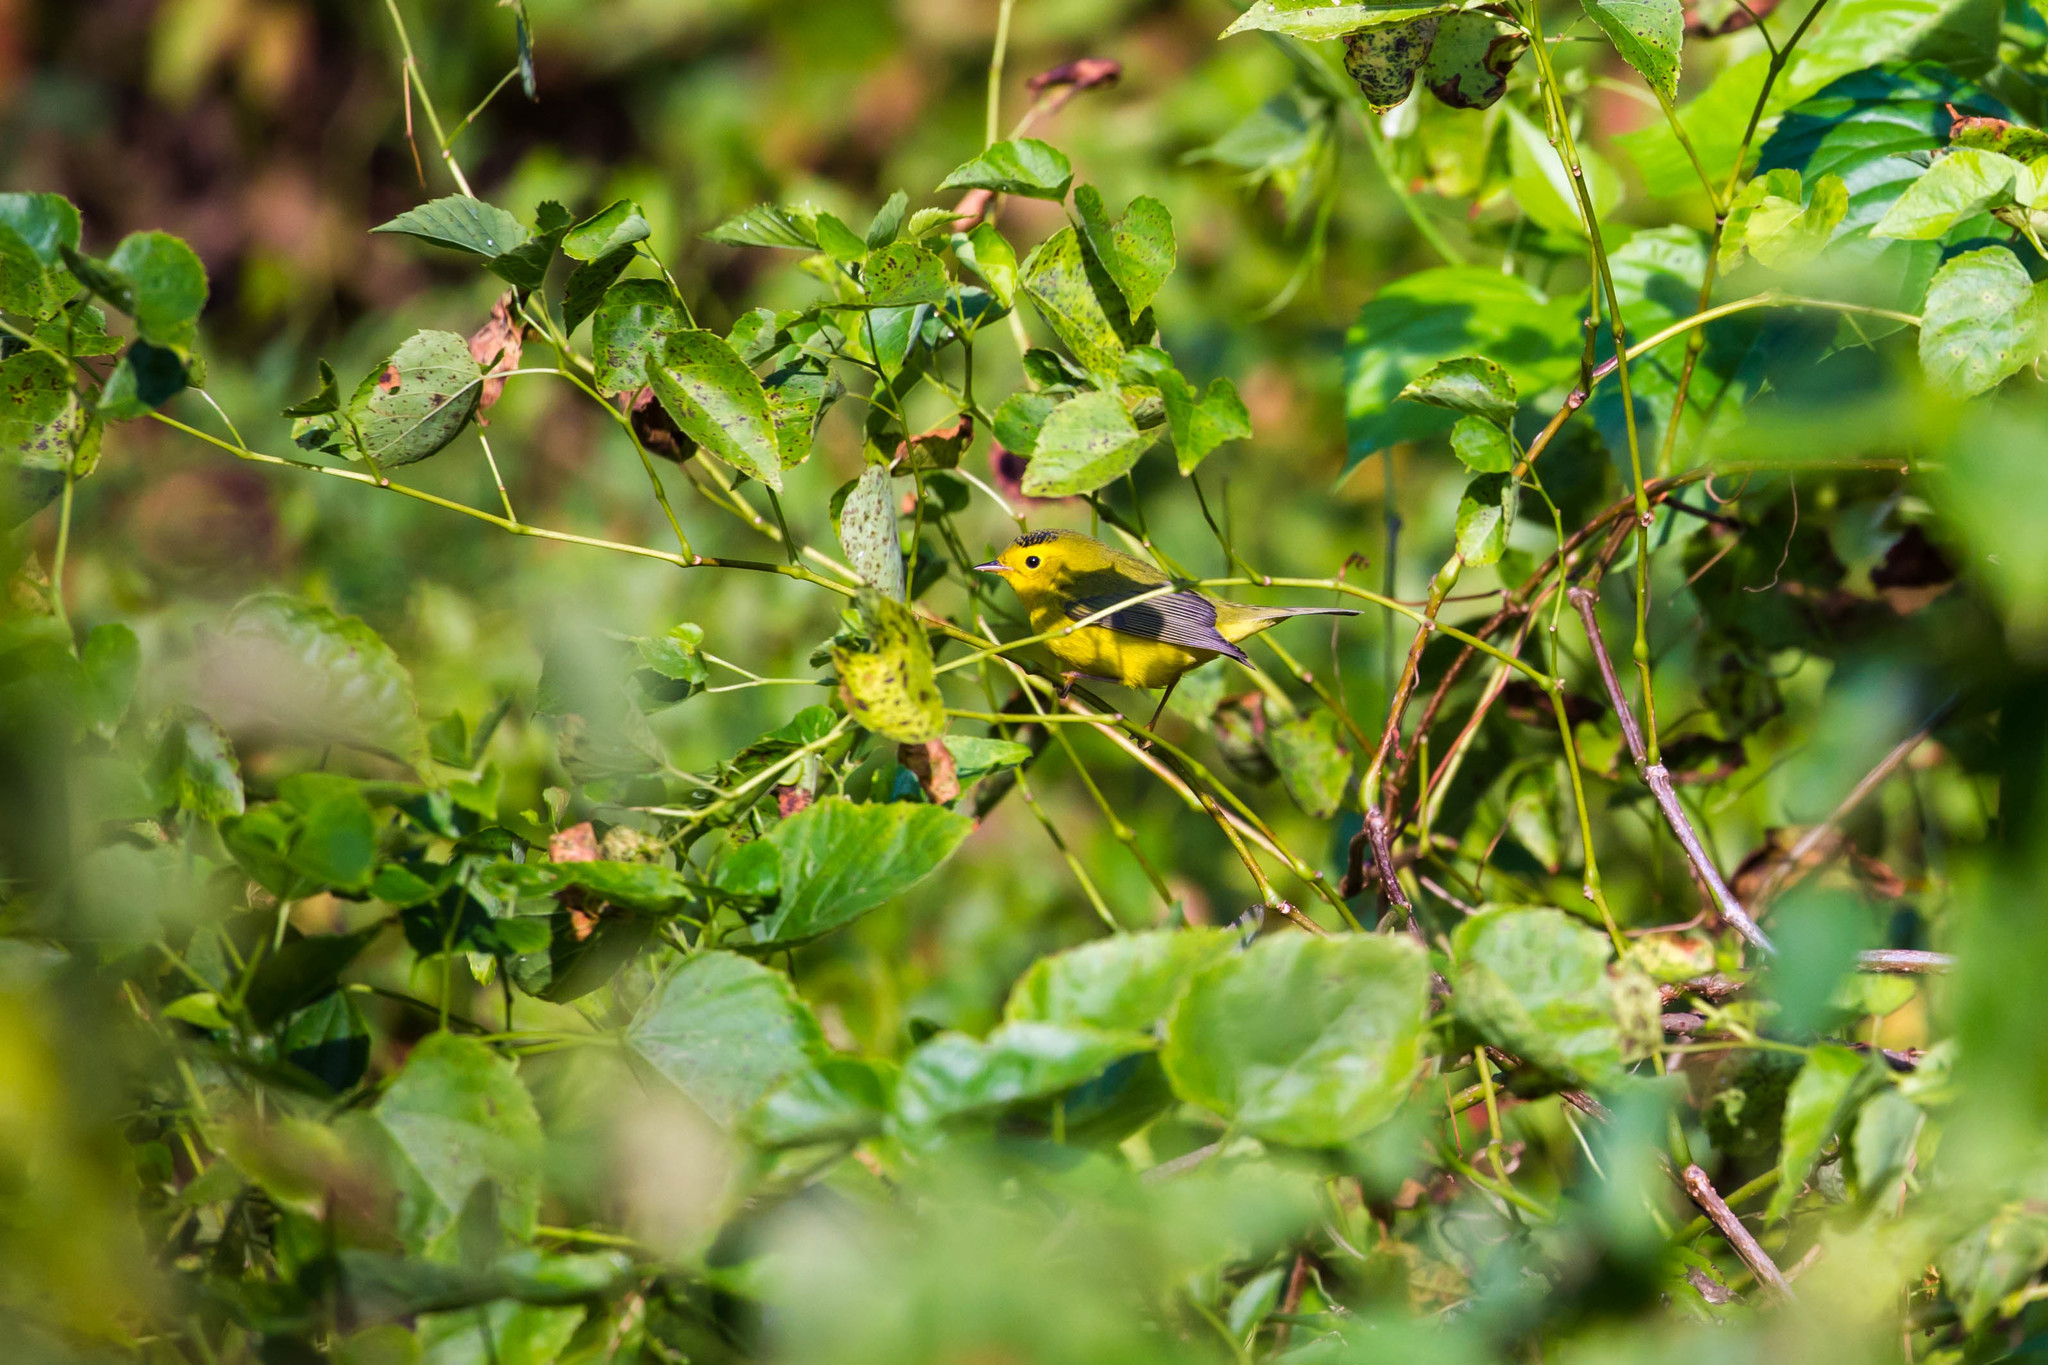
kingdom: Animalia
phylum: Chordata
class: Aves
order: Passeriformes
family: Parulidae
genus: Cardellina
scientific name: Cardellina pusilla
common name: Wilson's warbler
